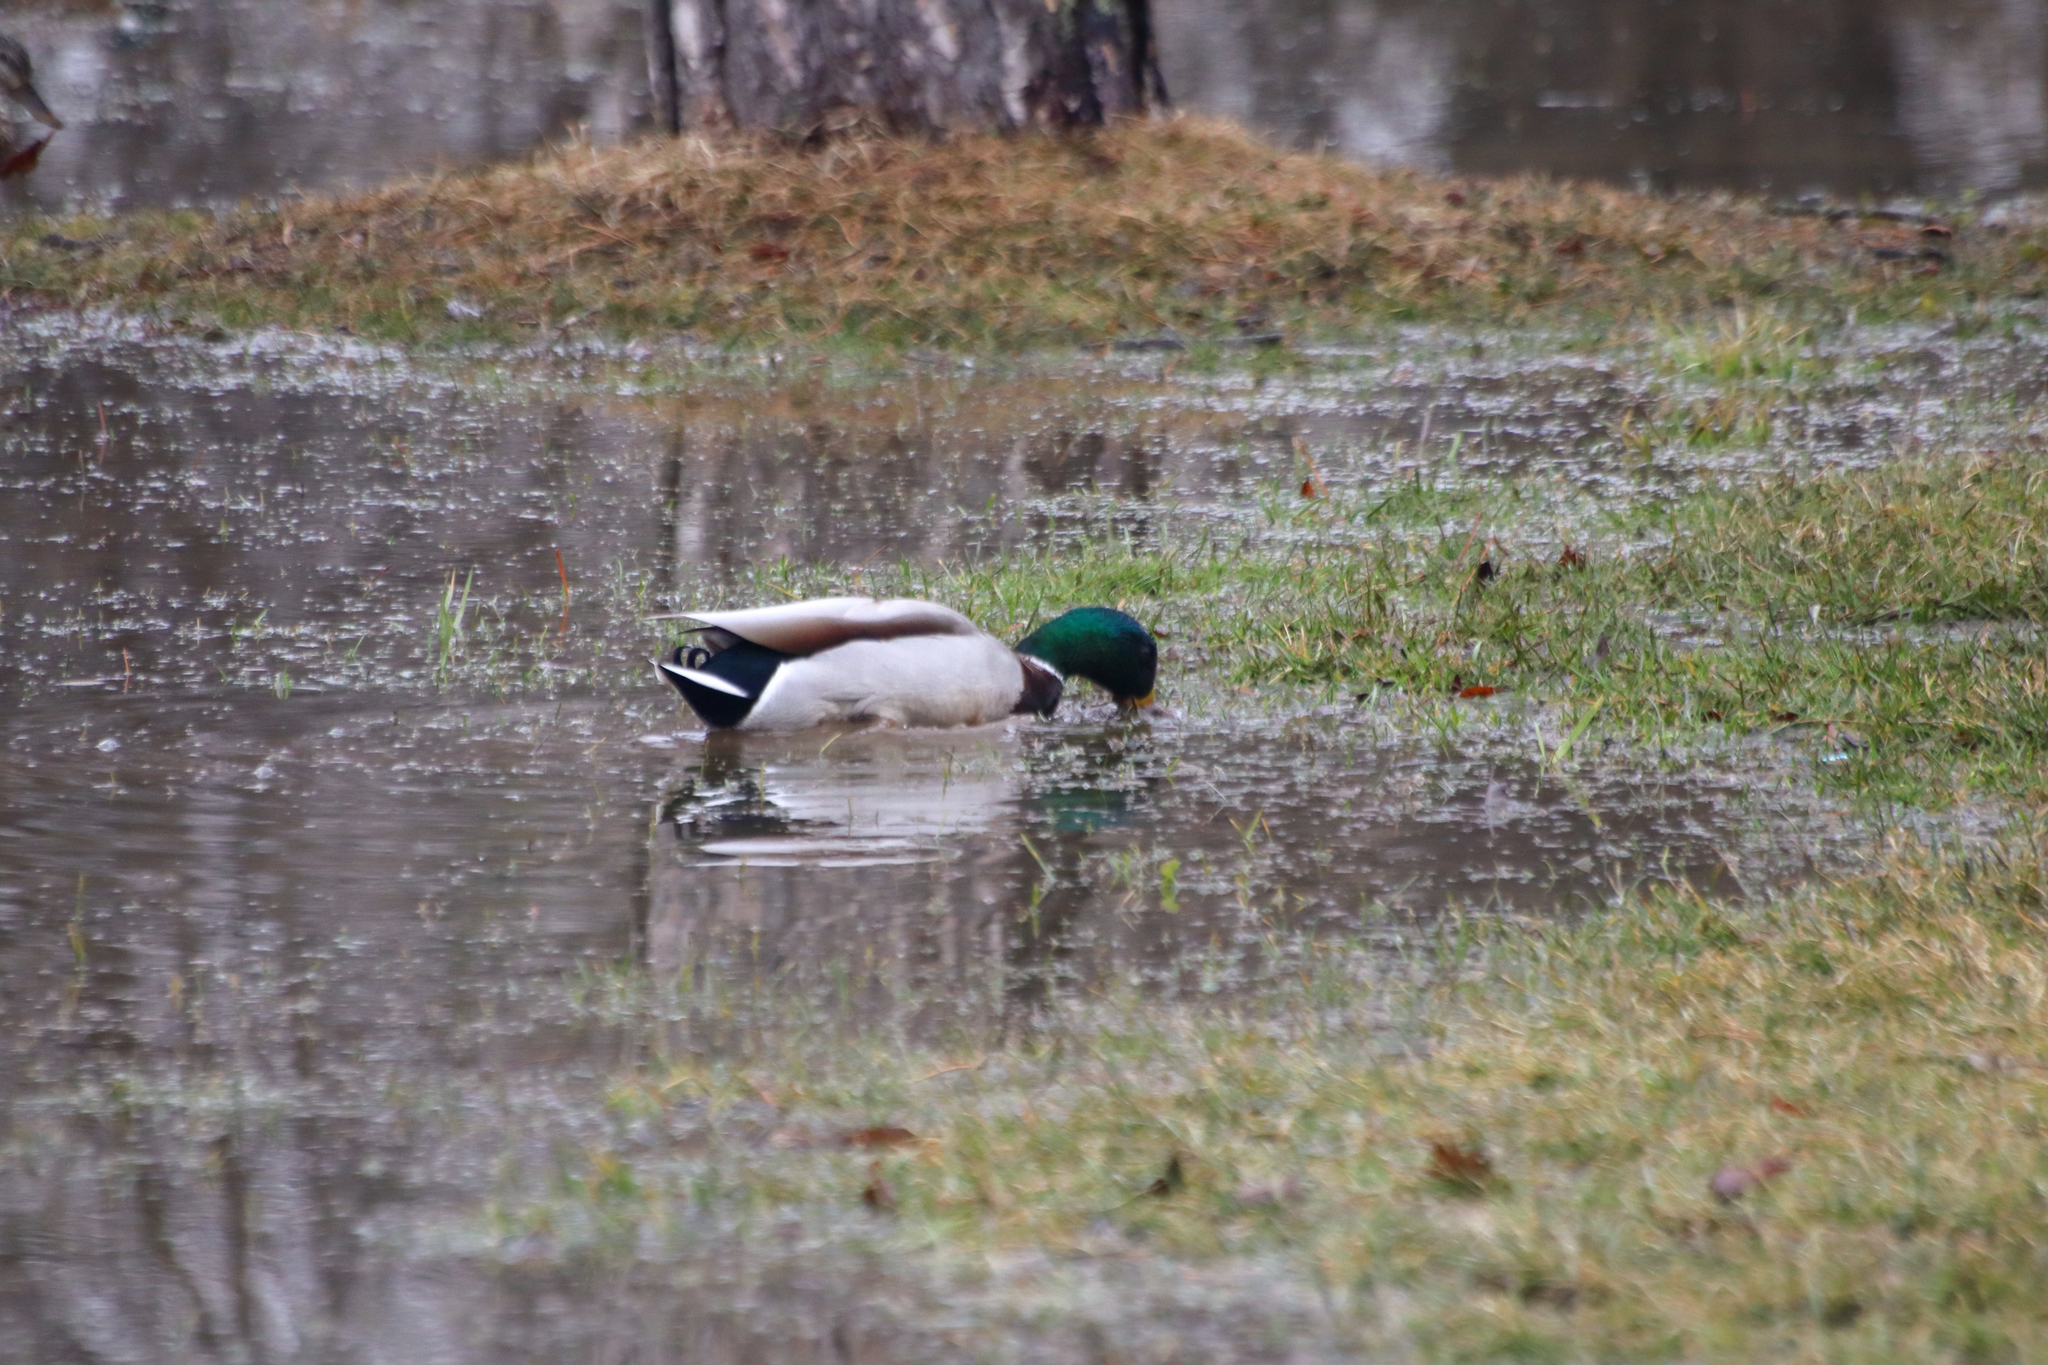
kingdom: Animalia
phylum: Chordata
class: Aves
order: Anseriformes
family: Anatidae
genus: Anas
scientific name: Anas platyrhynchos
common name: Mallard
